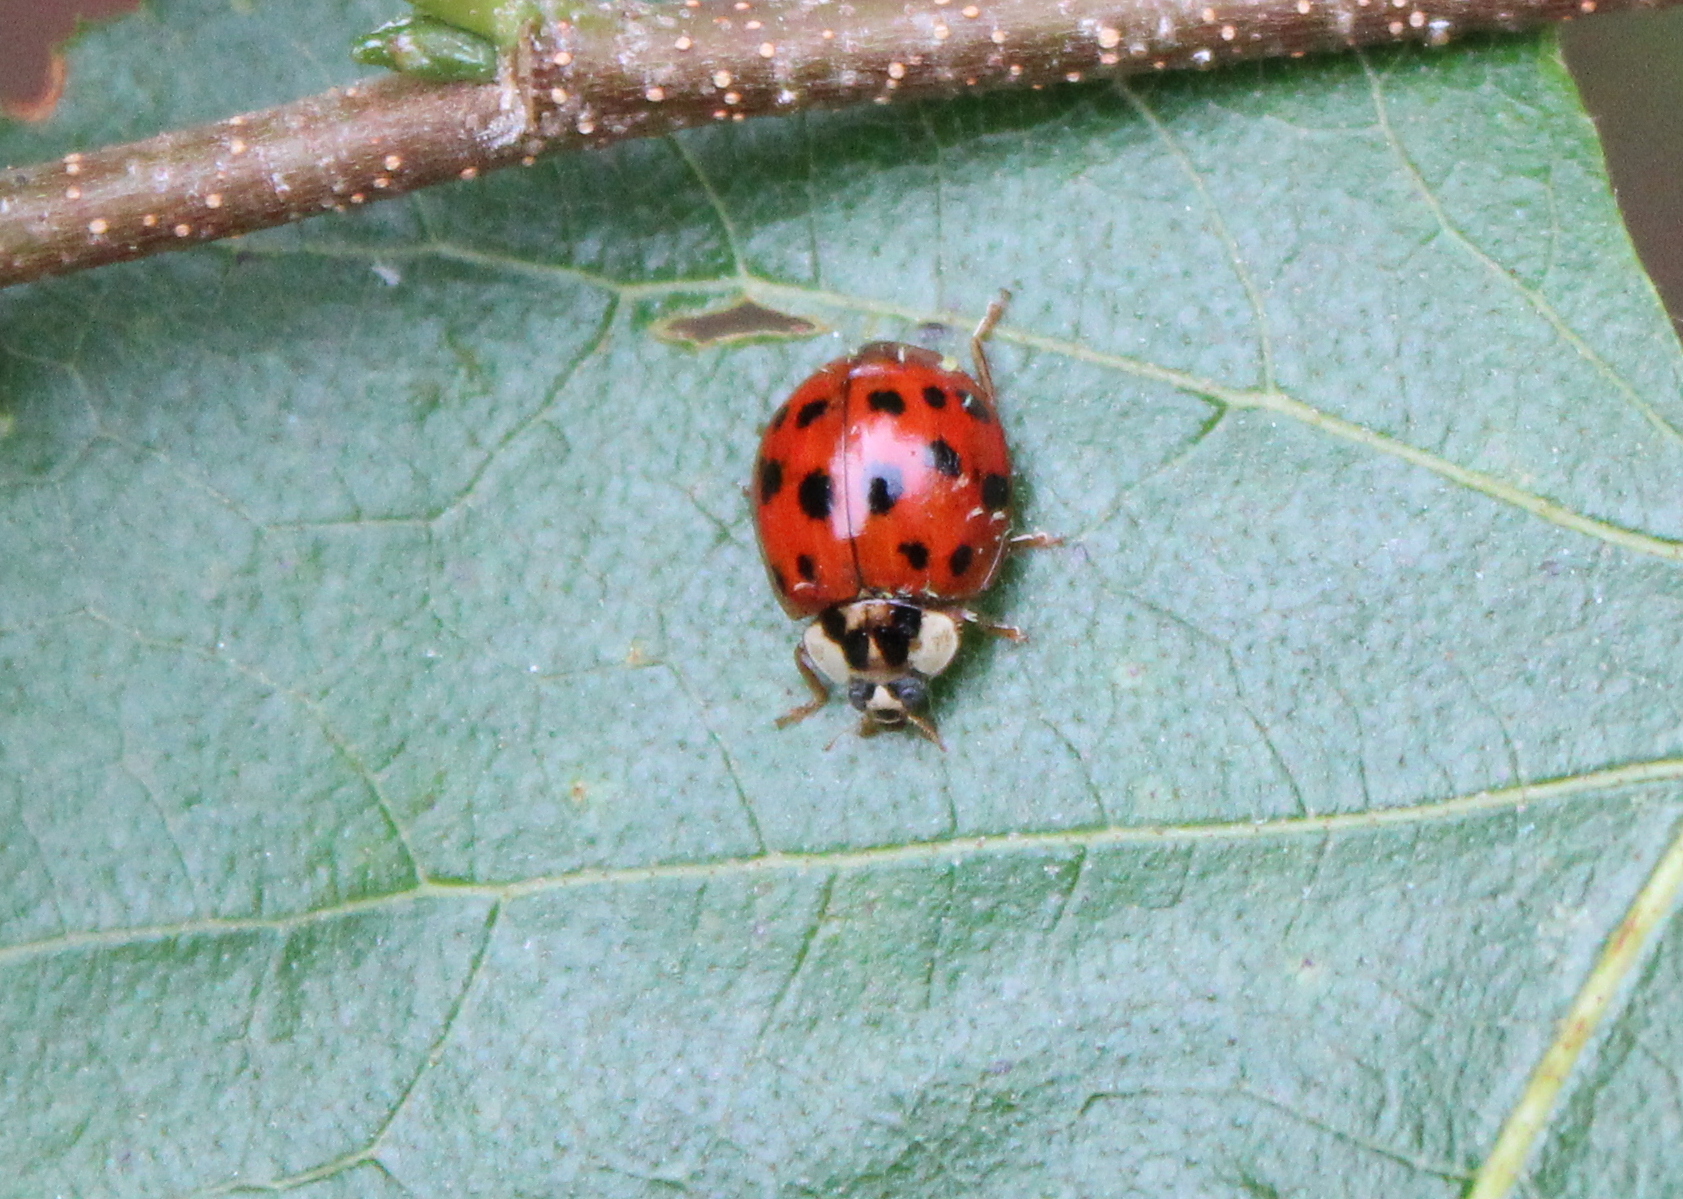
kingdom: Fungi
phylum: Ascomycota
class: Laboulbeniomycetes
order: Laboulbeniales
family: Laboulbeniaceae
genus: Hesperomyces
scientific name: Hesperomyces harmoniae
